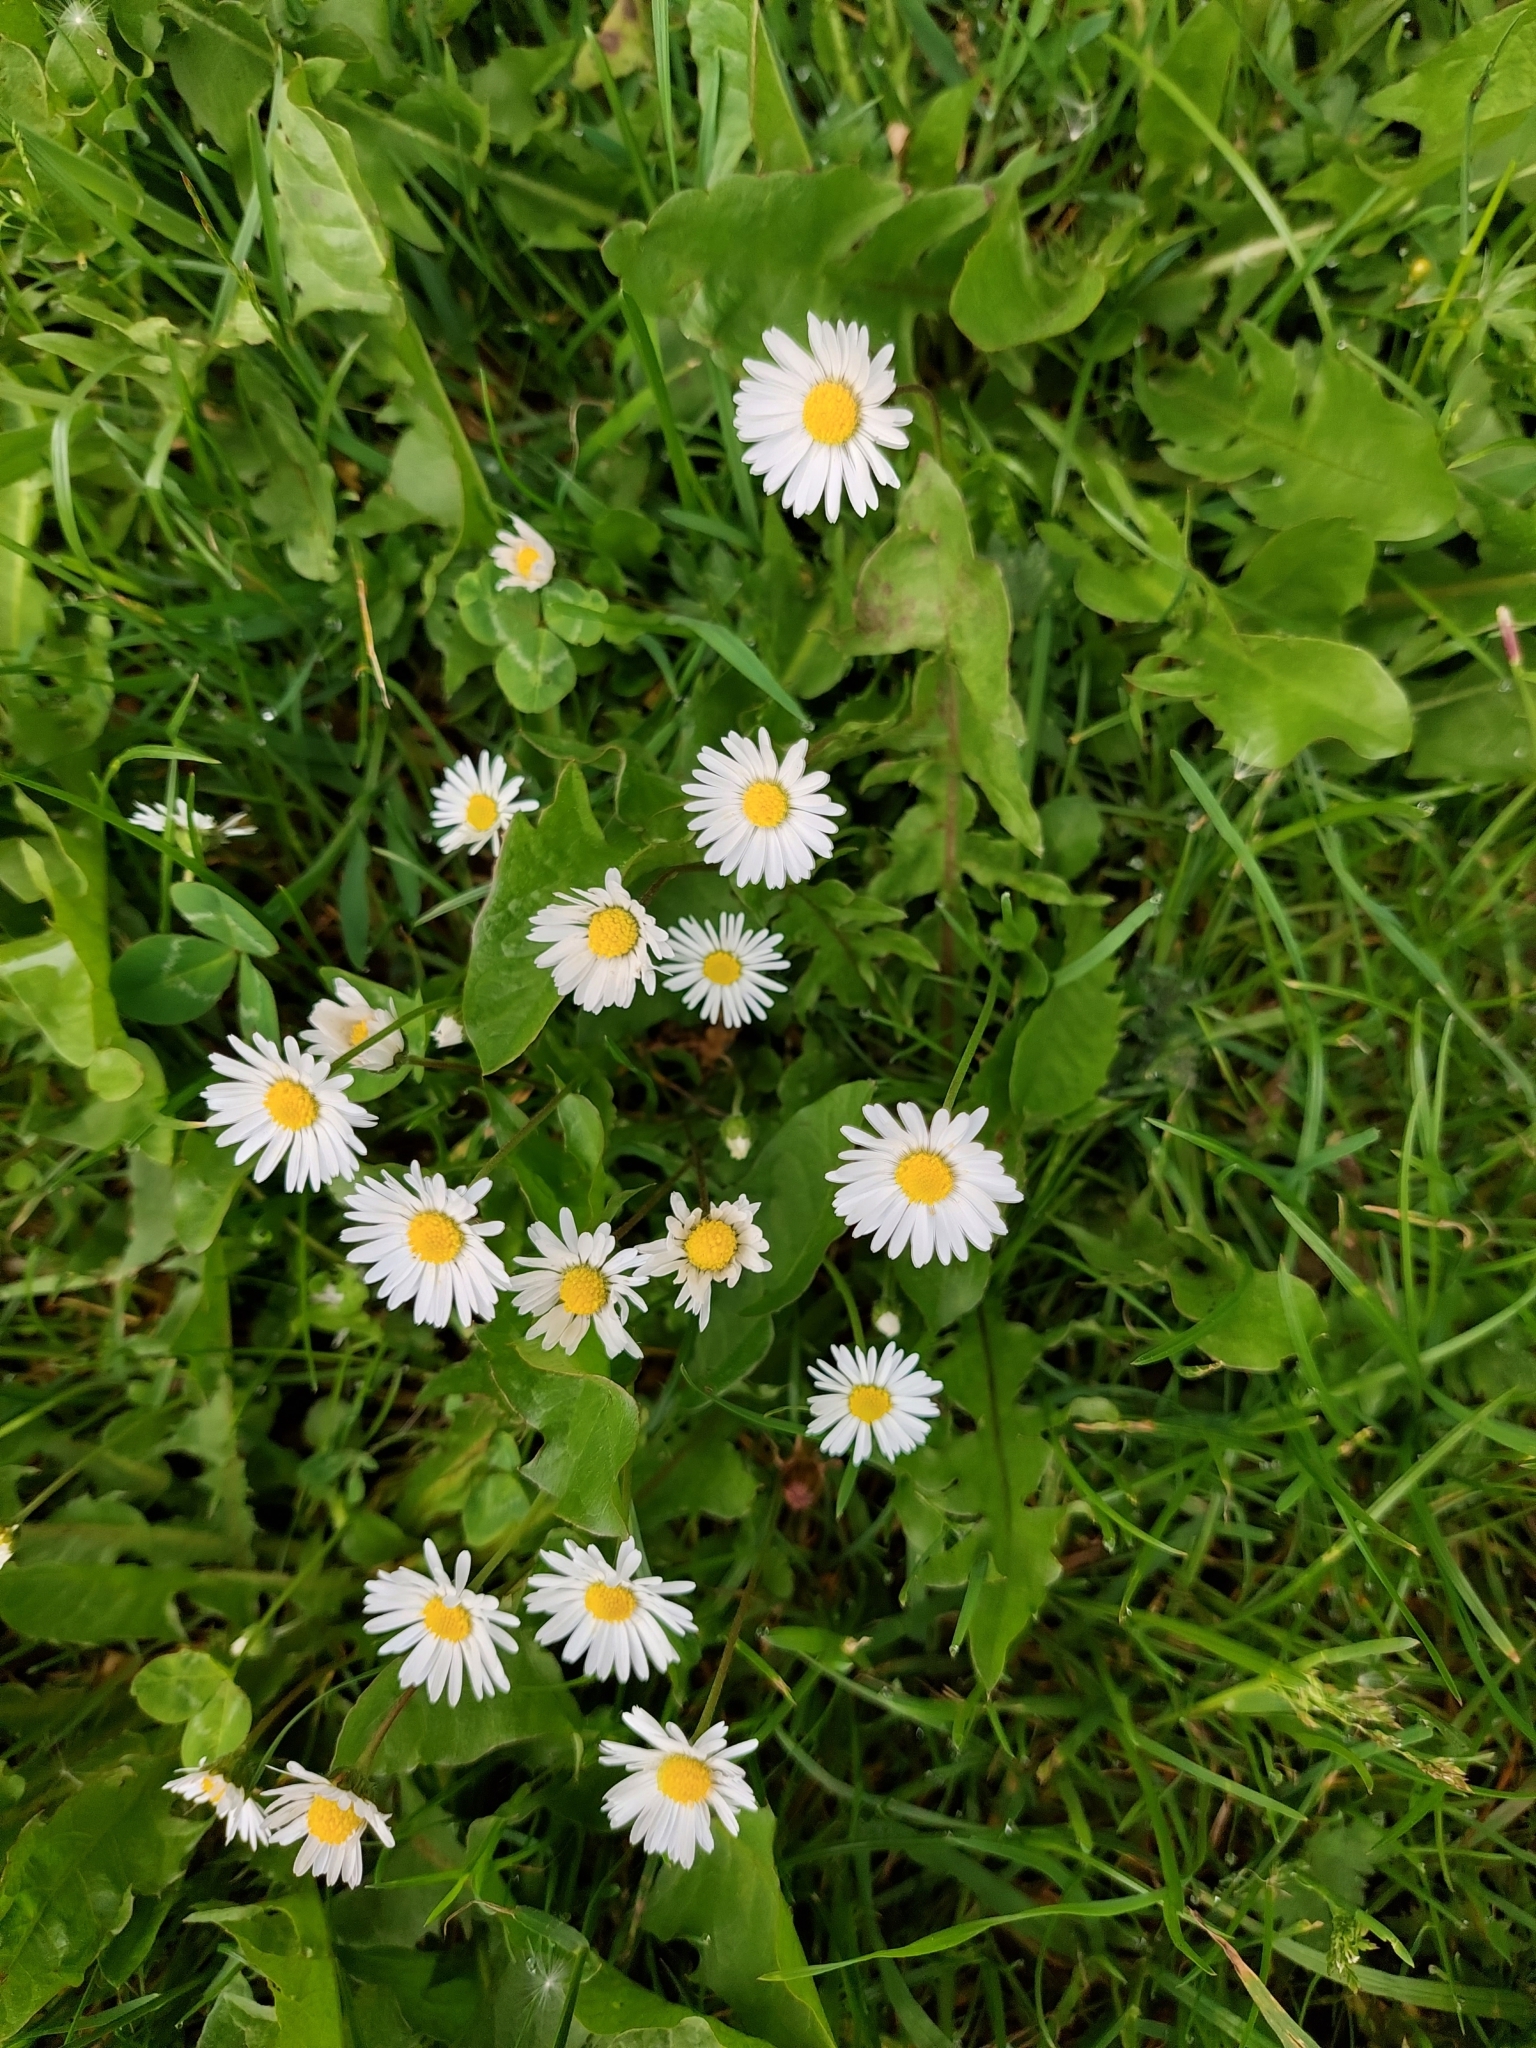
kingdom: Plantae
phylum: Tracheophyta
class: Magnoliopsida
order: Asterales
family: Asteraceae
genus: Bellis
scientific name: Bellis perennis
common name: Lawndaisy
